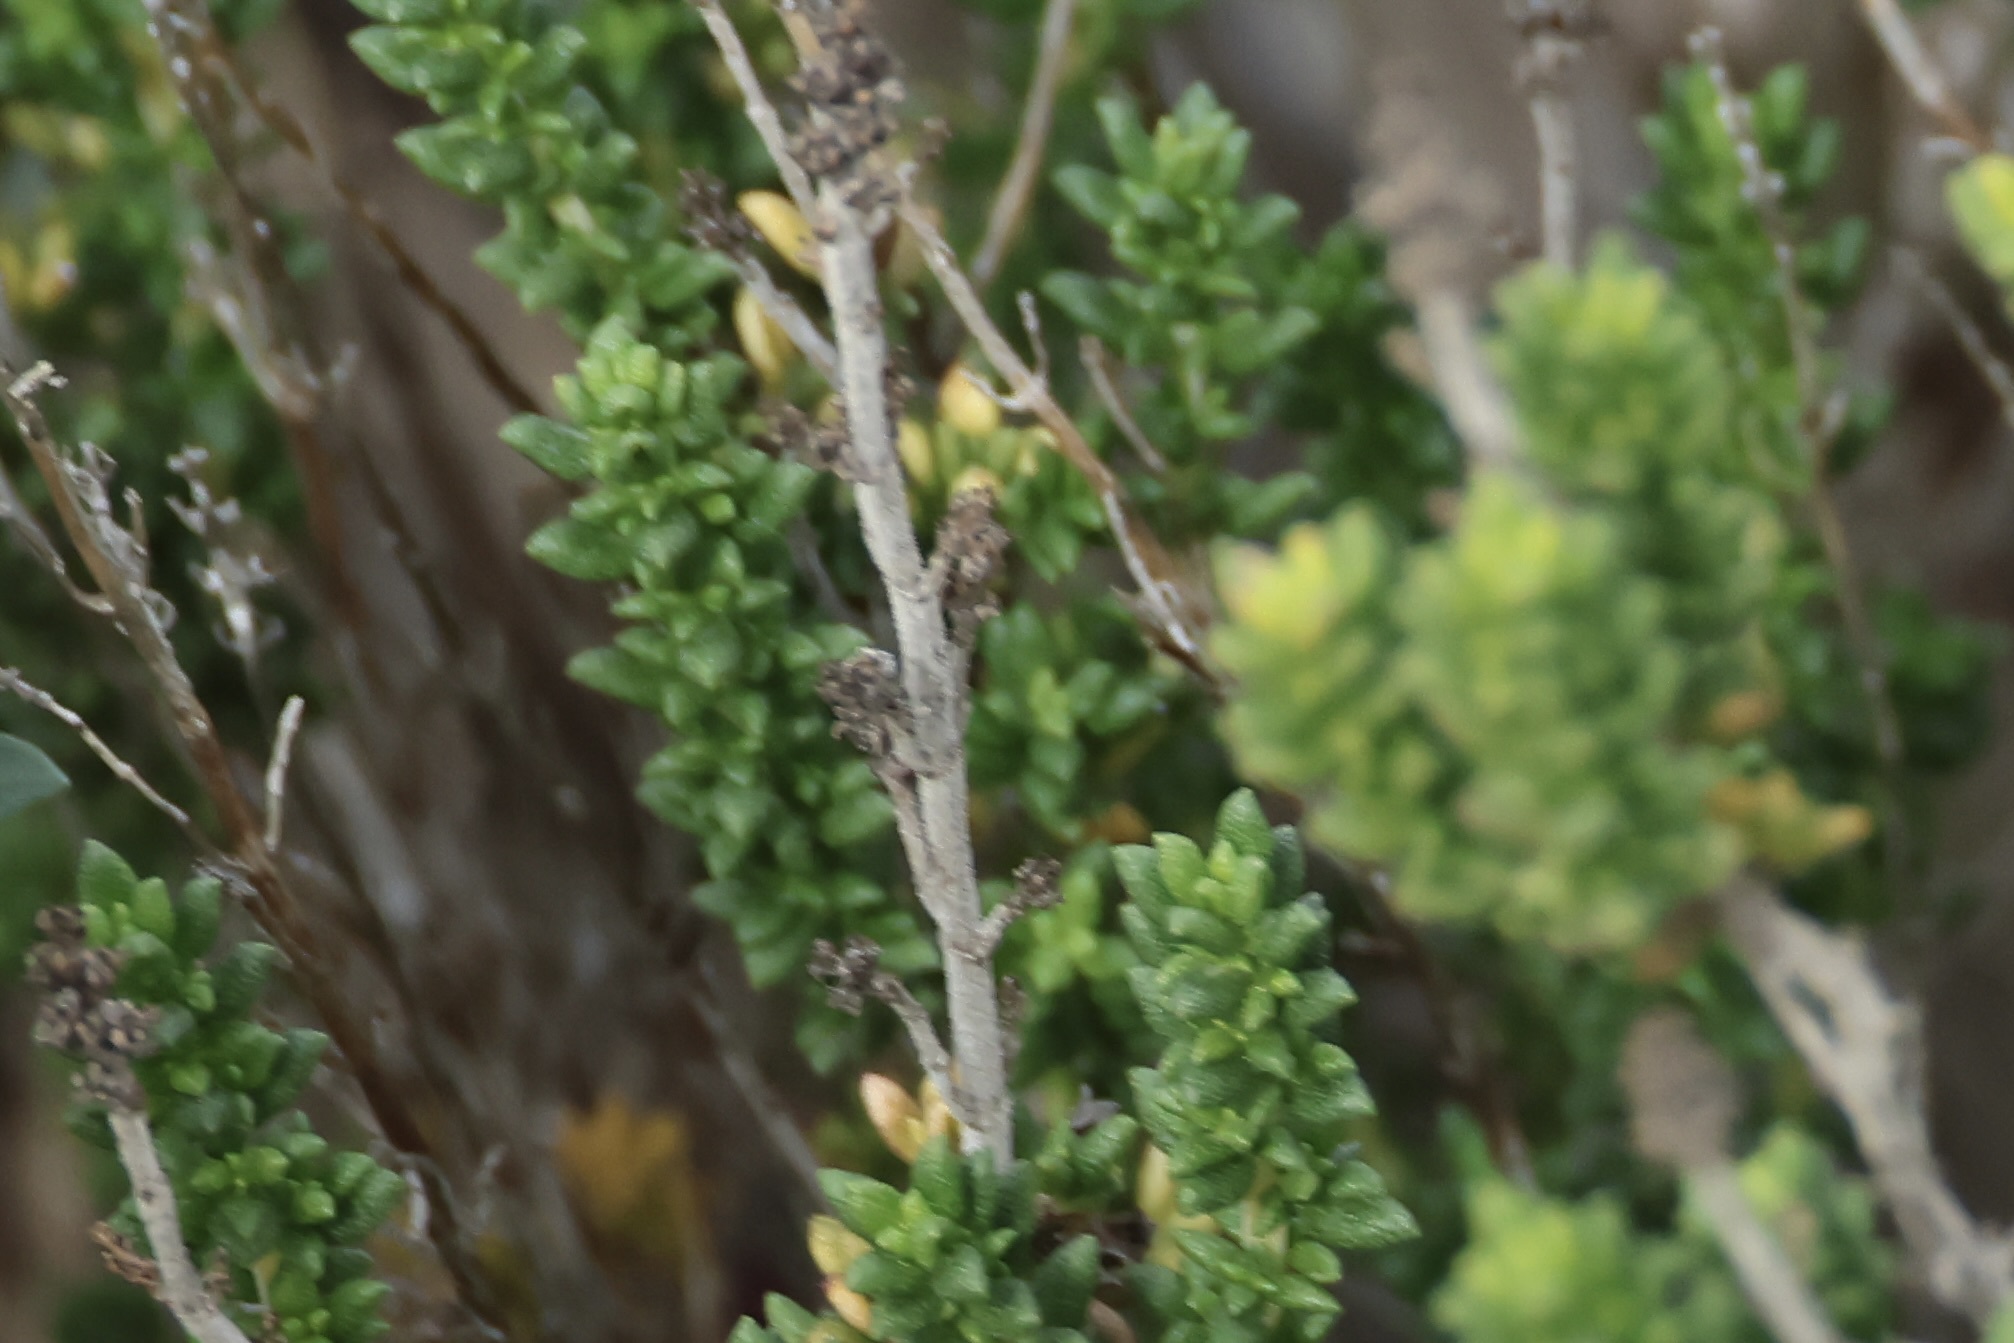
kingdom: Plantae
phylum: Tracheophyta
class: Magnoliopsida
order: Lamiales
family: Lamiaceae
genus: Thymus
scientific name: Thymus carnosus
